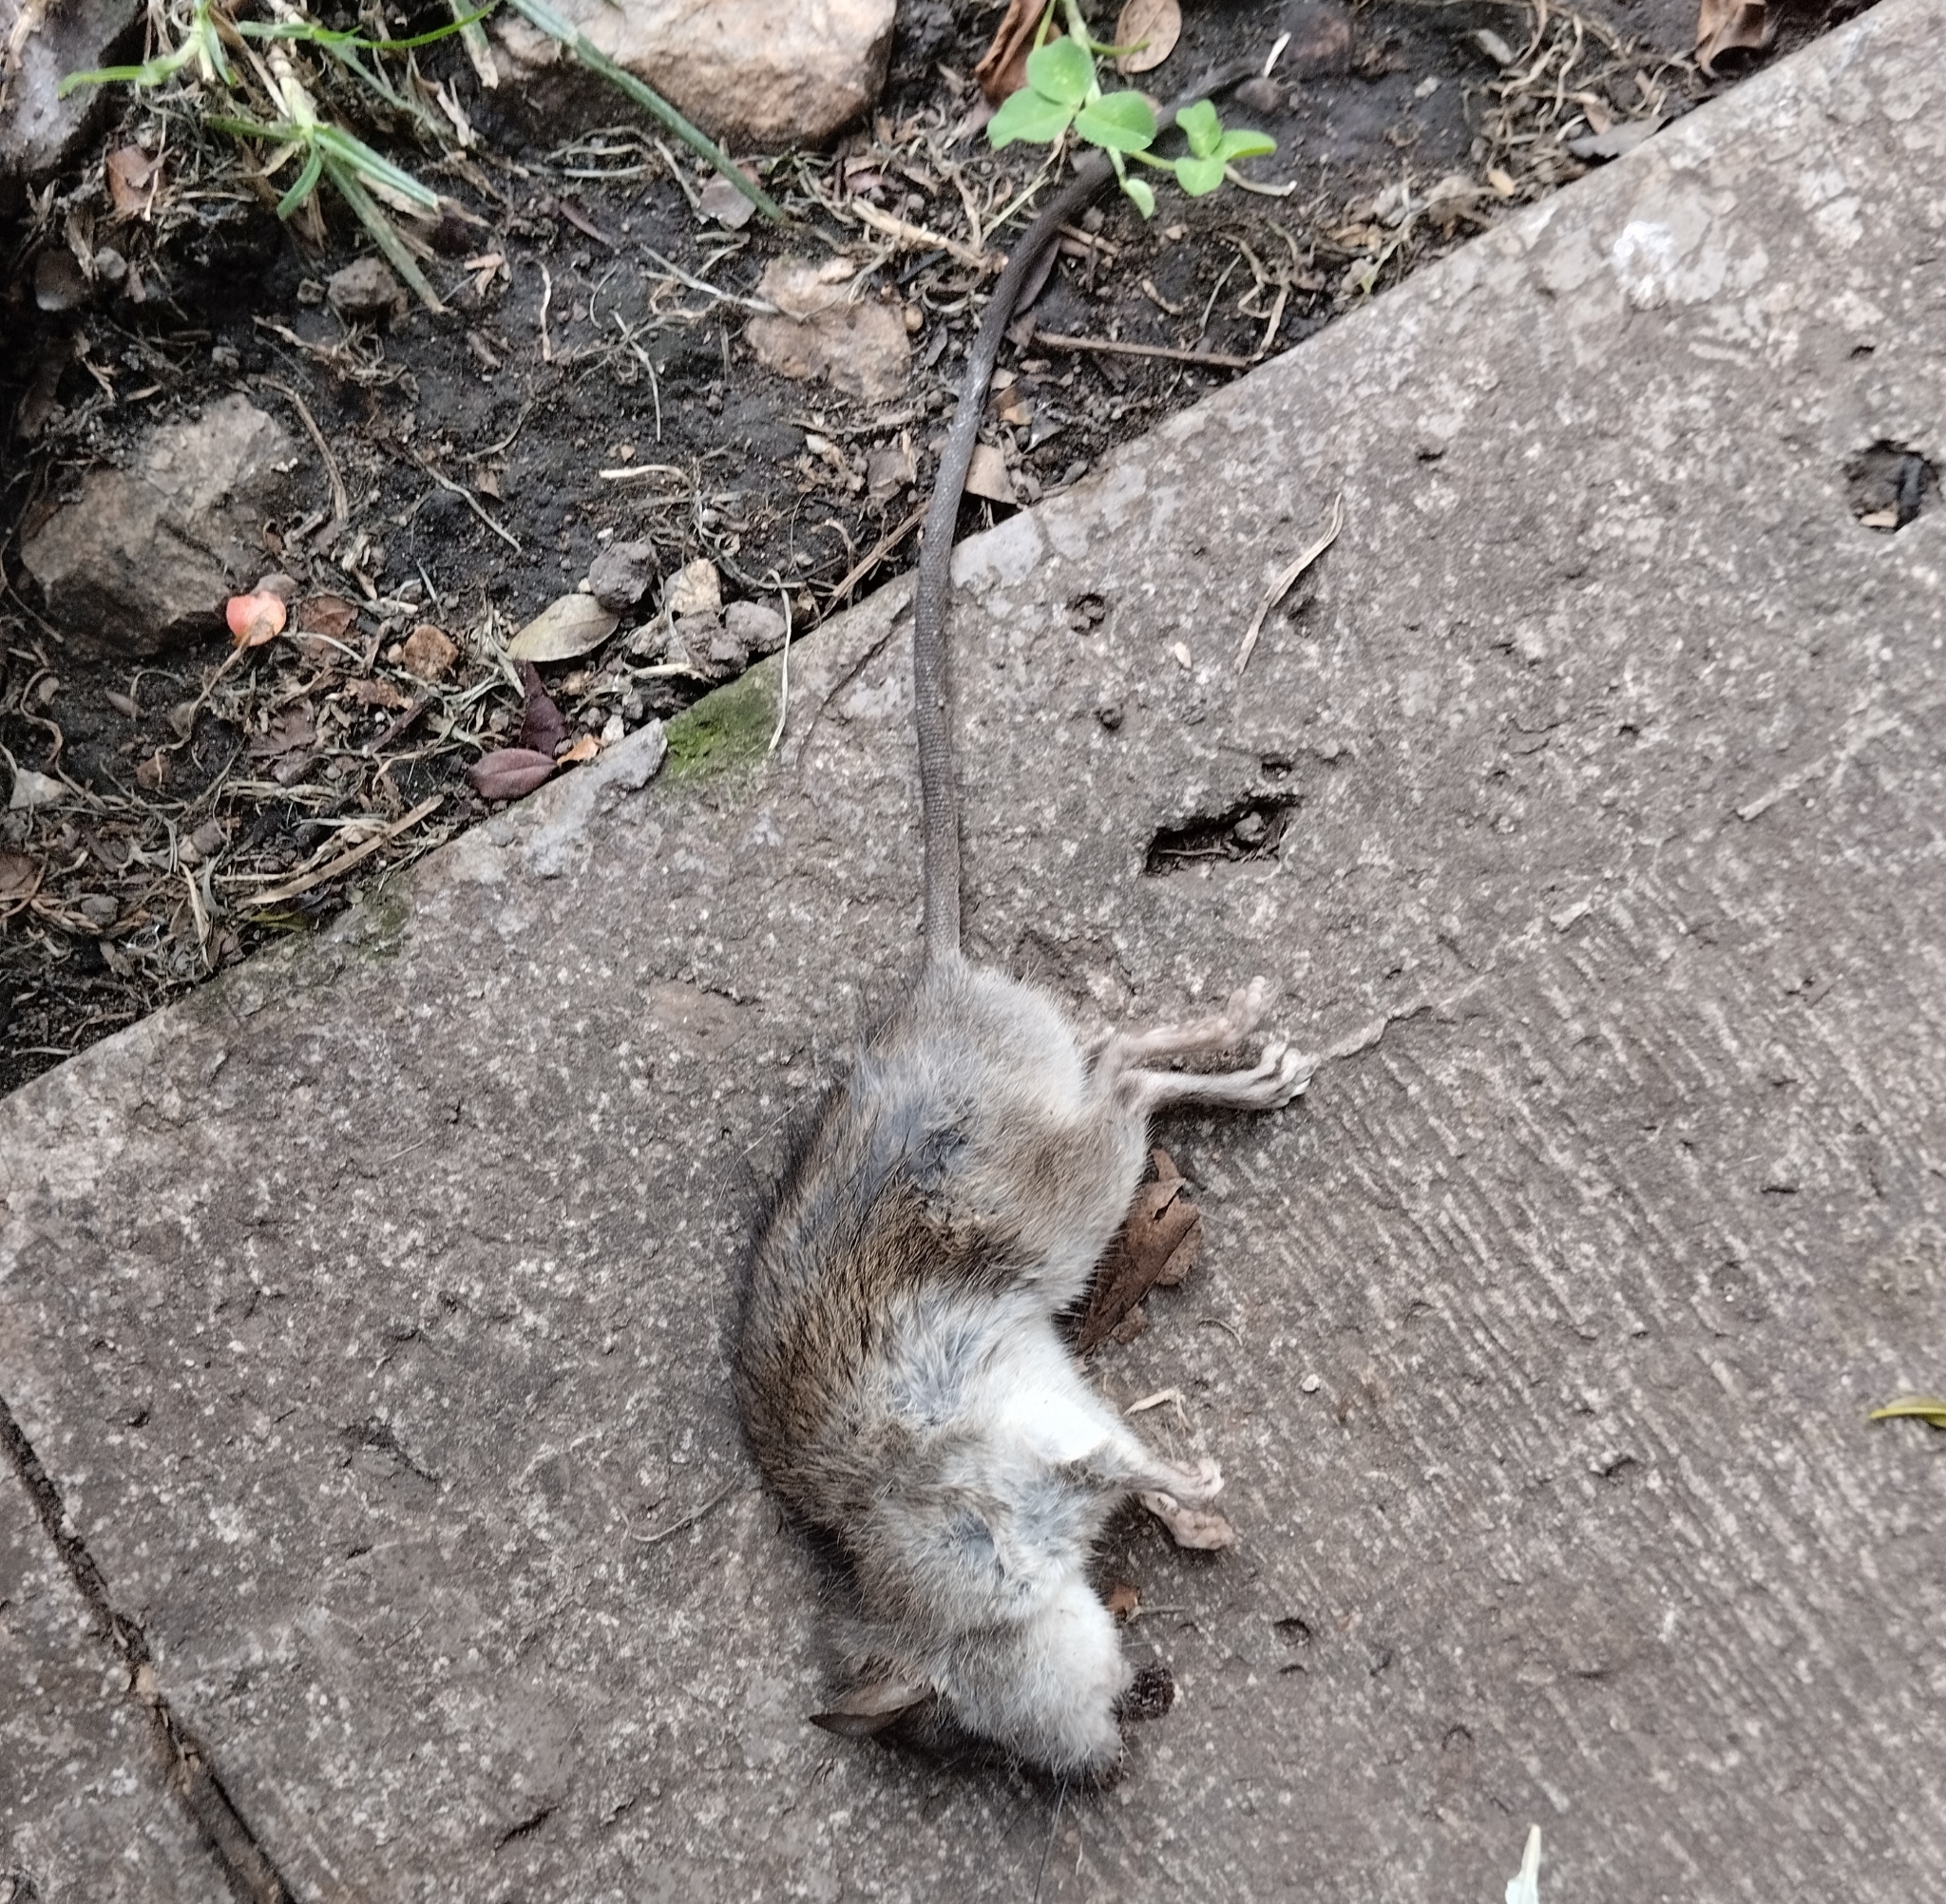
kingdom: Animalia
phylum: Chordata
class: Mammalia
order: Rodentia
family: Muridae
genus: Rattus
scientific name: Rattus norvegicus
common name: Brown rat
